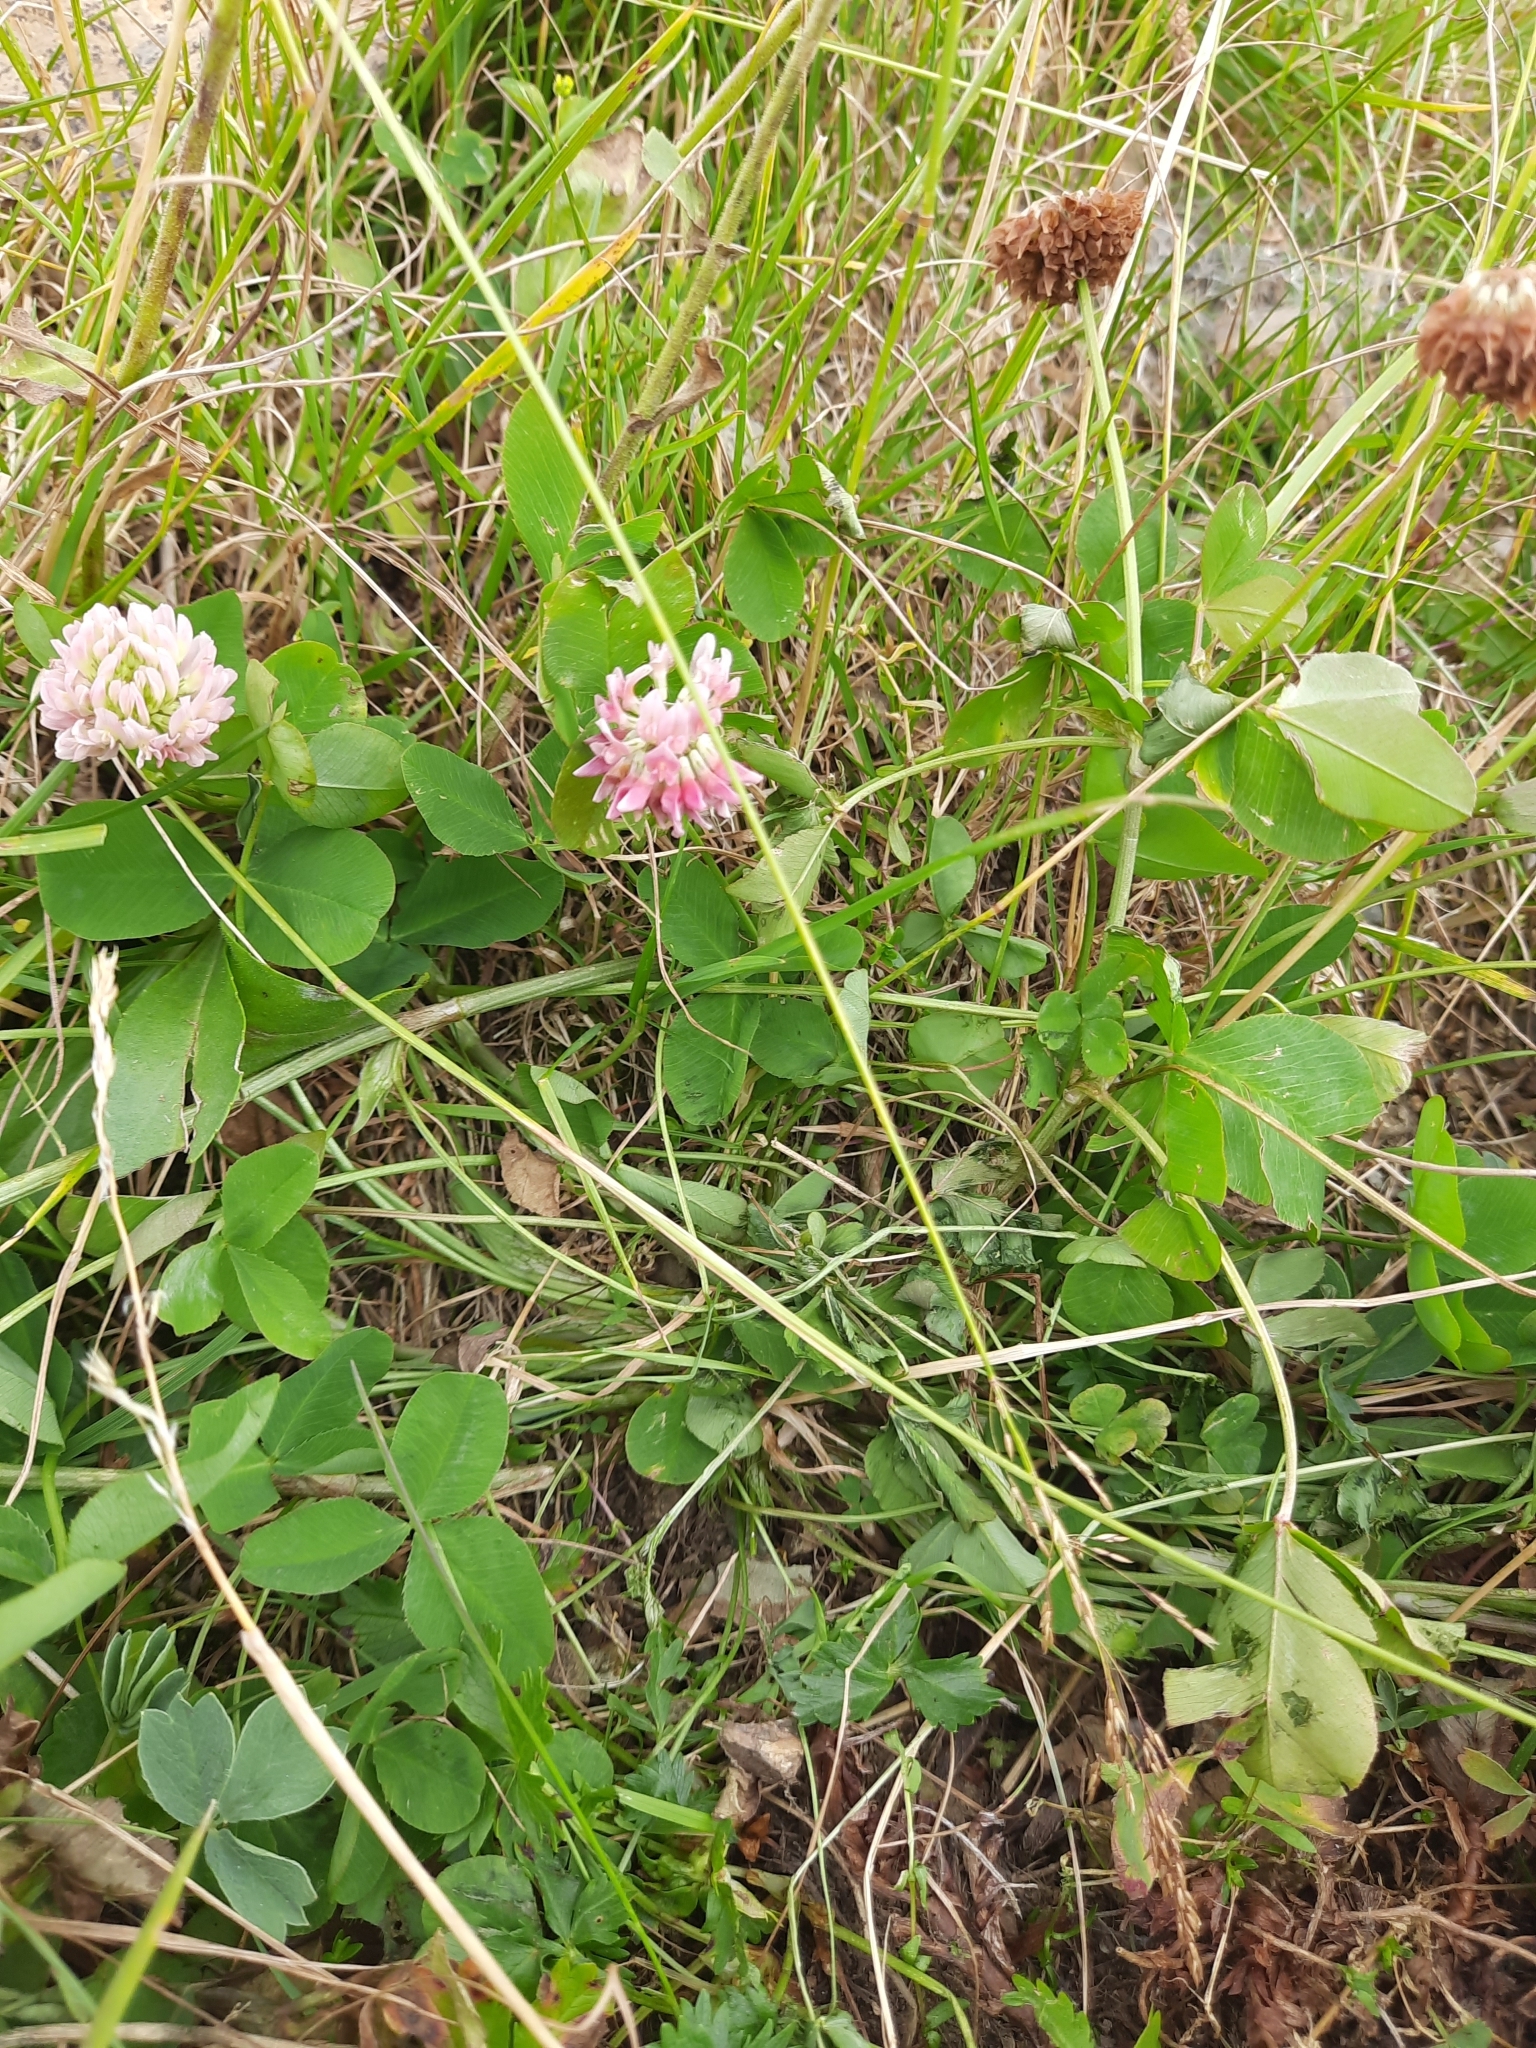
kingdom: Plantae
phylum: Tracheophyta
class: Magnoliopsida
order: Fabales
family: Fabaceae
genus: Trifolium
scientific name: Trifolium hybridum
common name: Alsike clover
